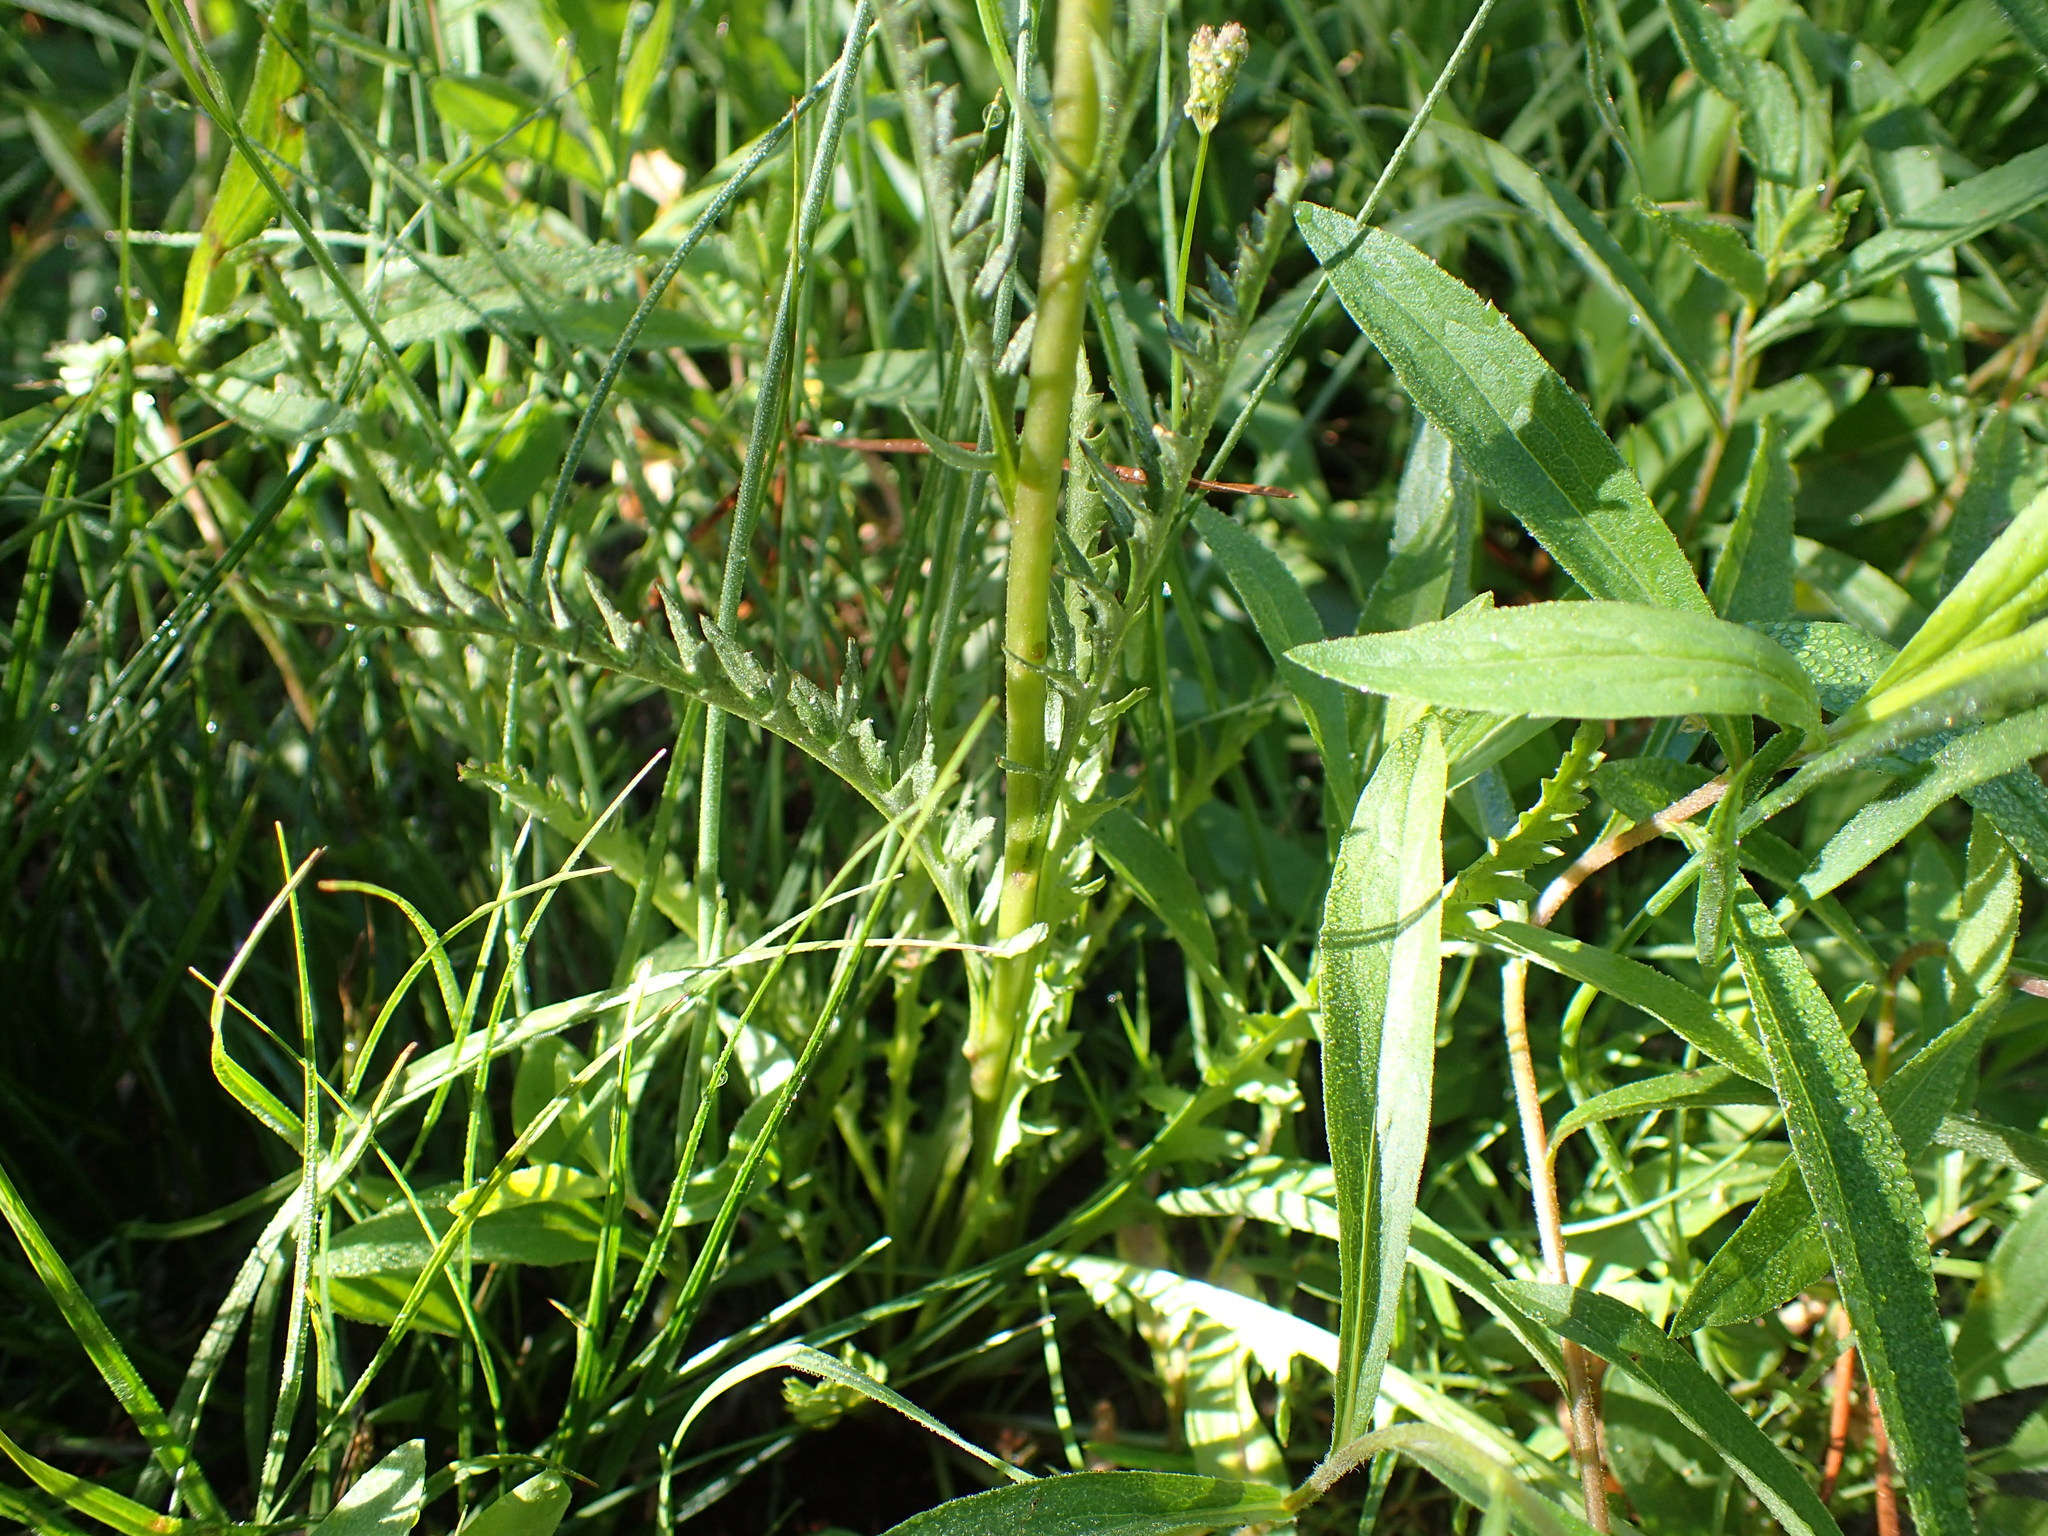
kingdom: Plantae
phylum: Tracheophyta
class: Magnoliopsida
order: Lamiales
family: Orobanchaceae
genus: Pedicularis
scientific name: Pedicularis attollens
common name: Slender pedicularis
